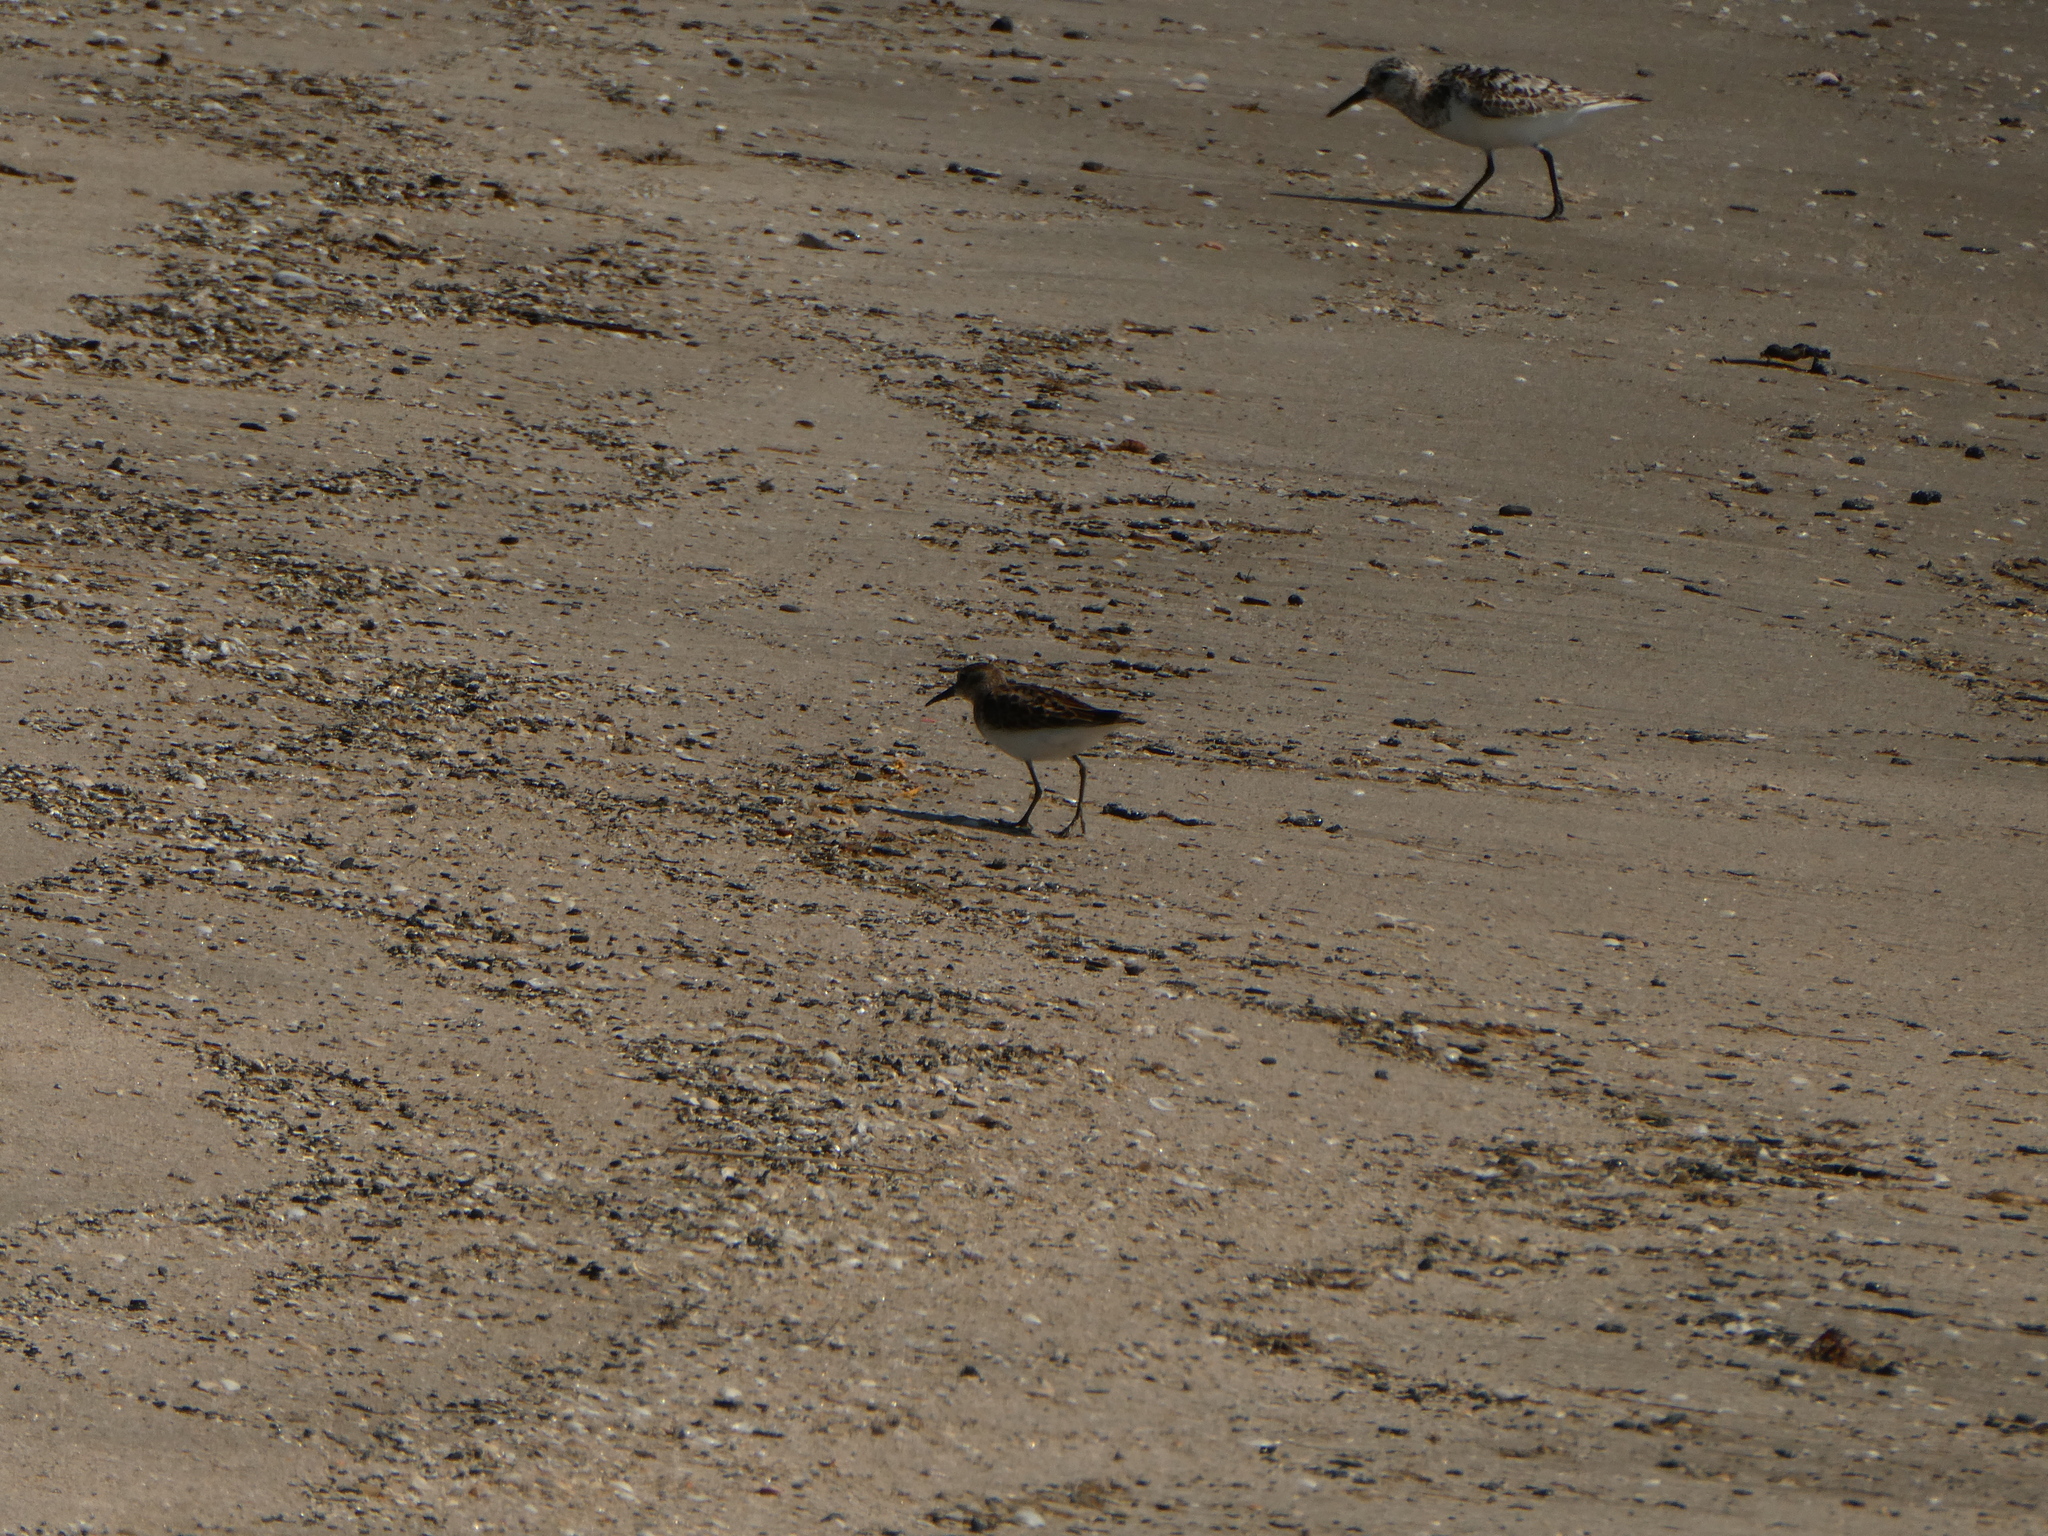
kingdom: Animalia
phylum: Chordata
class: Aves
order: Charadriiformes
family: Scolopacidae
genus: Calidris
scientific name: Calidris minutilla
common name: Least sandpiper
